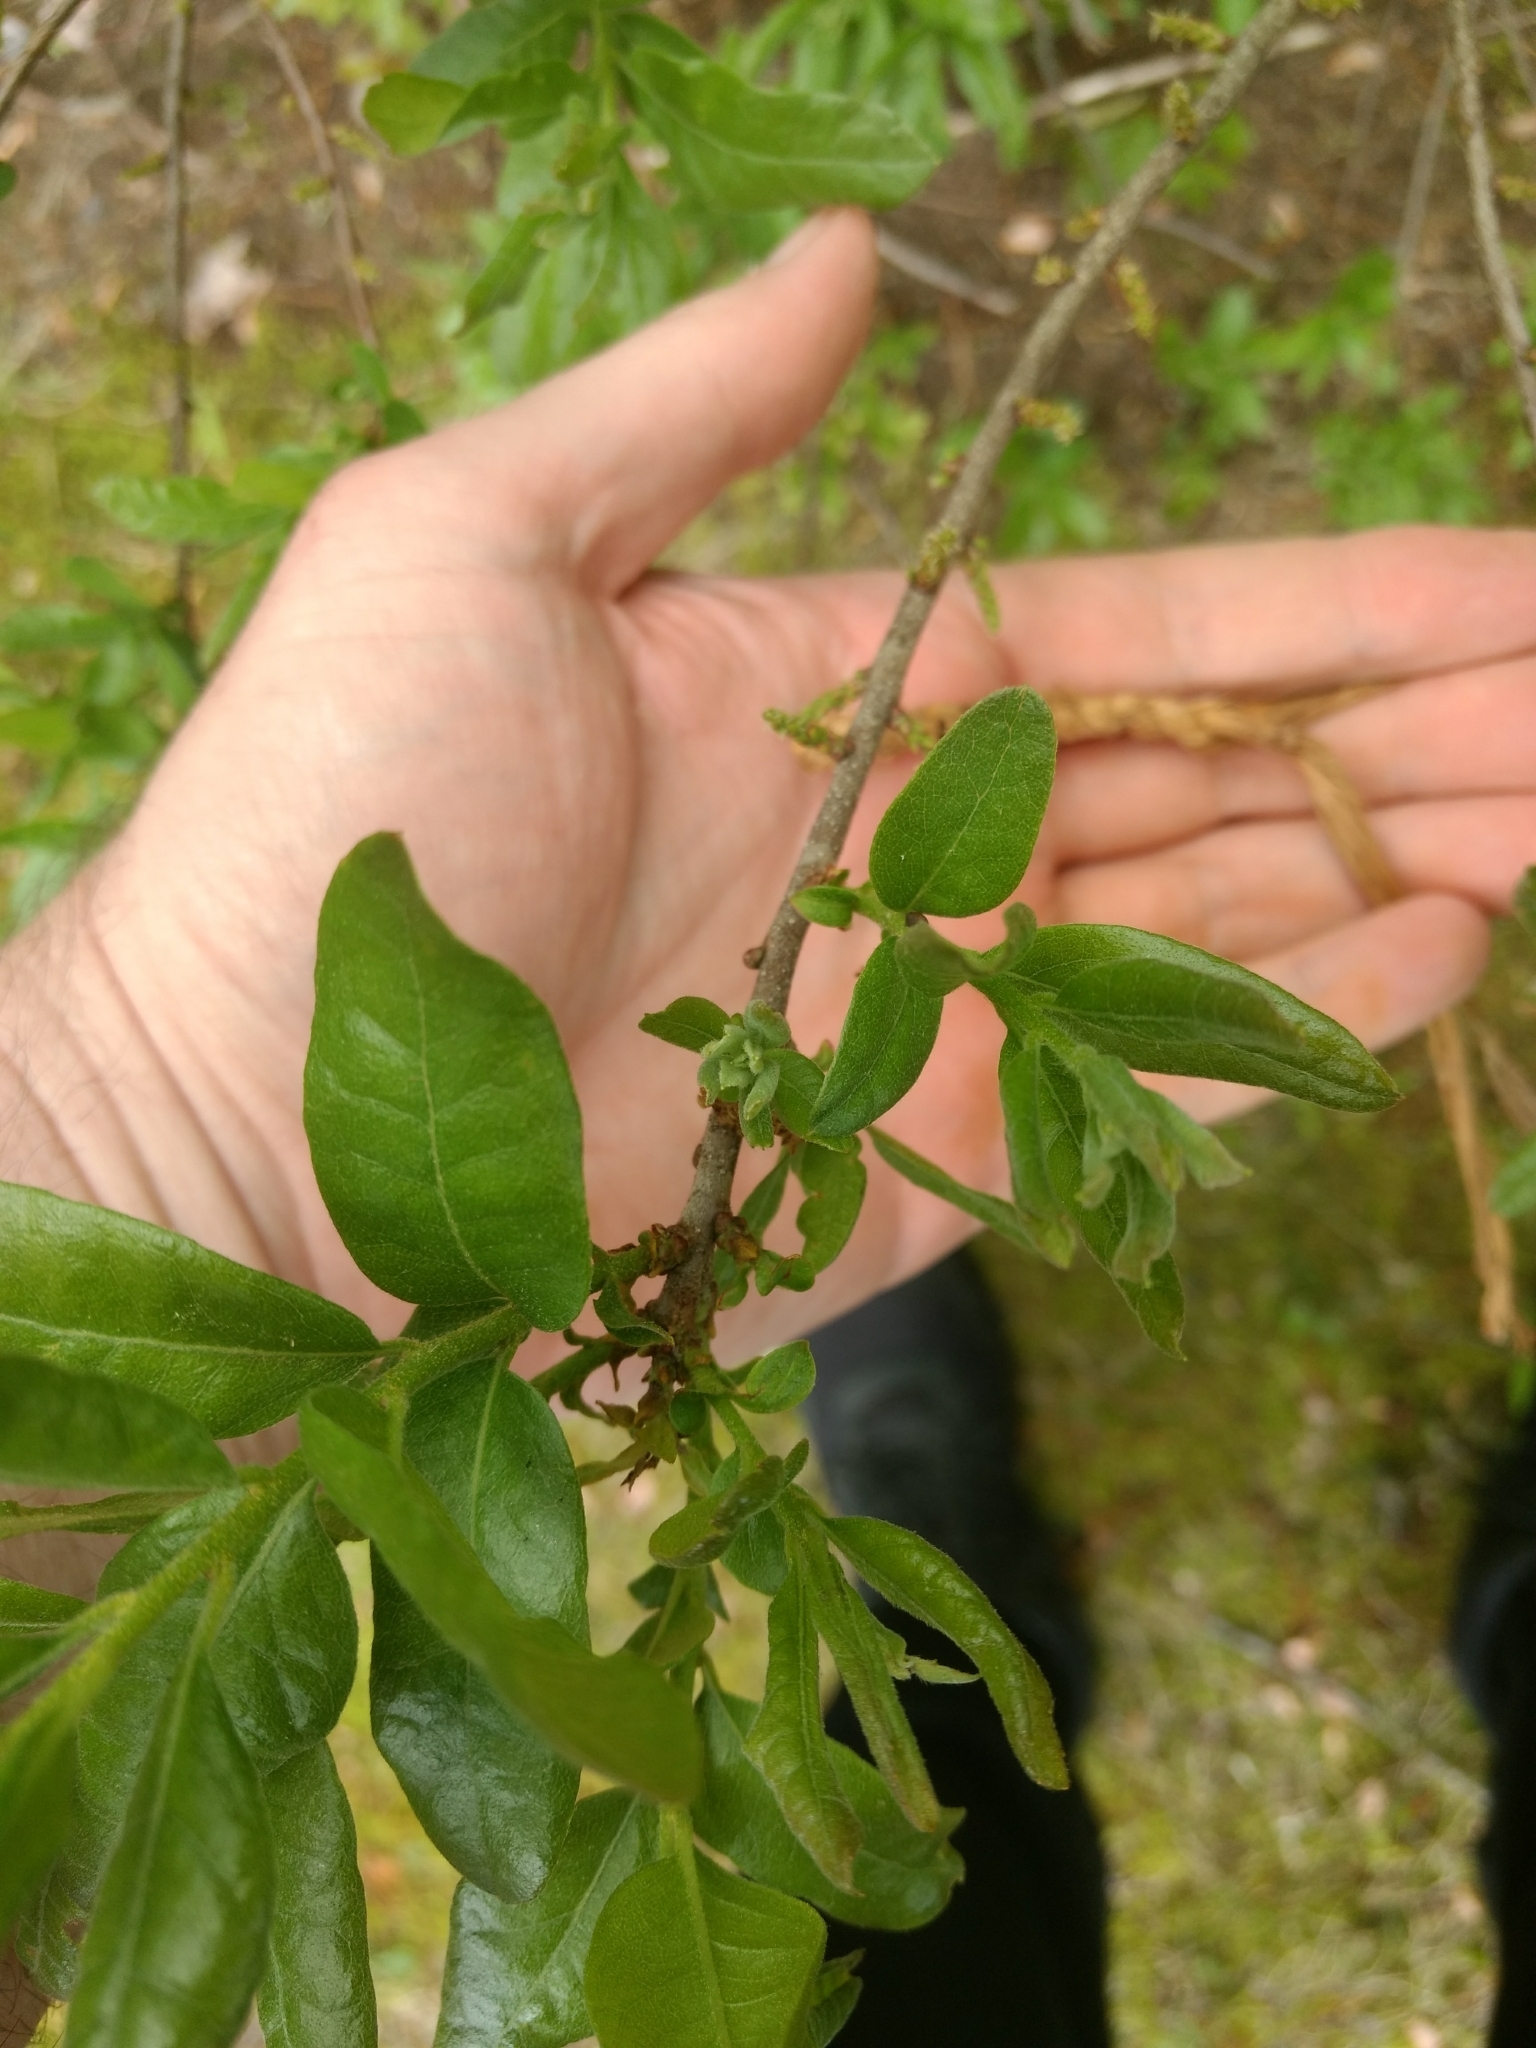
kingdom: Plantae
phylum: Tracheophyta
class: Magnoliopsida
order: Fagales
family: Myricaceae
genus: Morella
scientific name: Morella pensylvanica
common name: Northern bayberry
